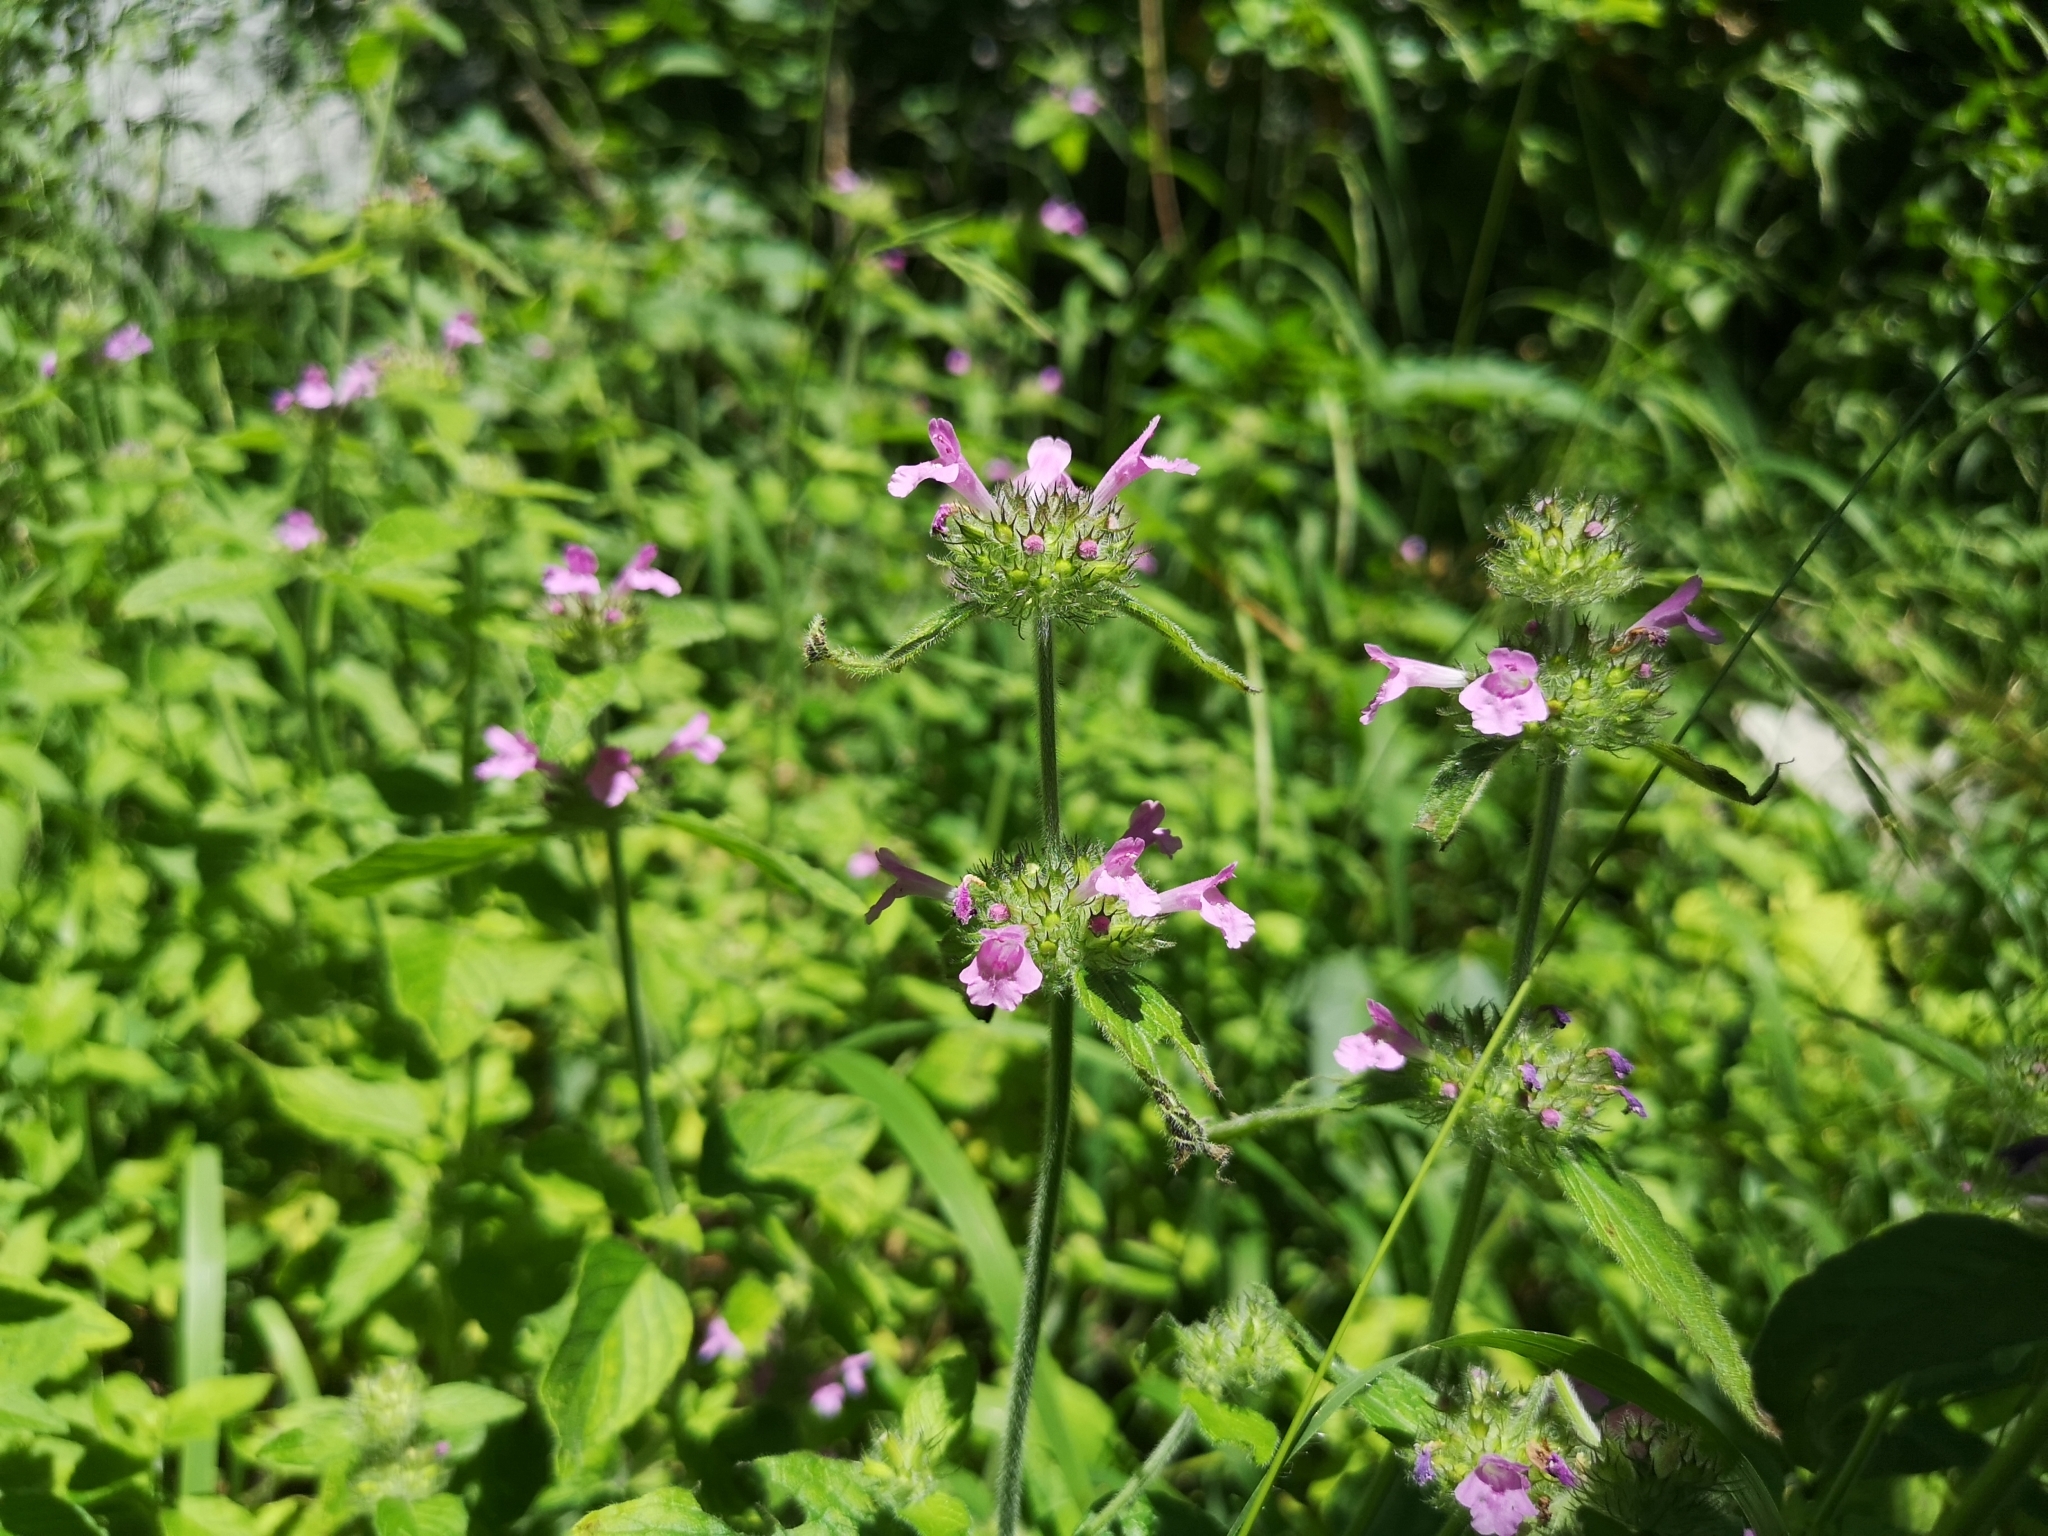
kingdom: Plantae
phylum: Tracheophyta
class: Magnoliopsida
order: Lamiales
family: Lamiaceae
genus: Clinopodium
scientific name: Clinopodium vulgare
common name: Wild basil
